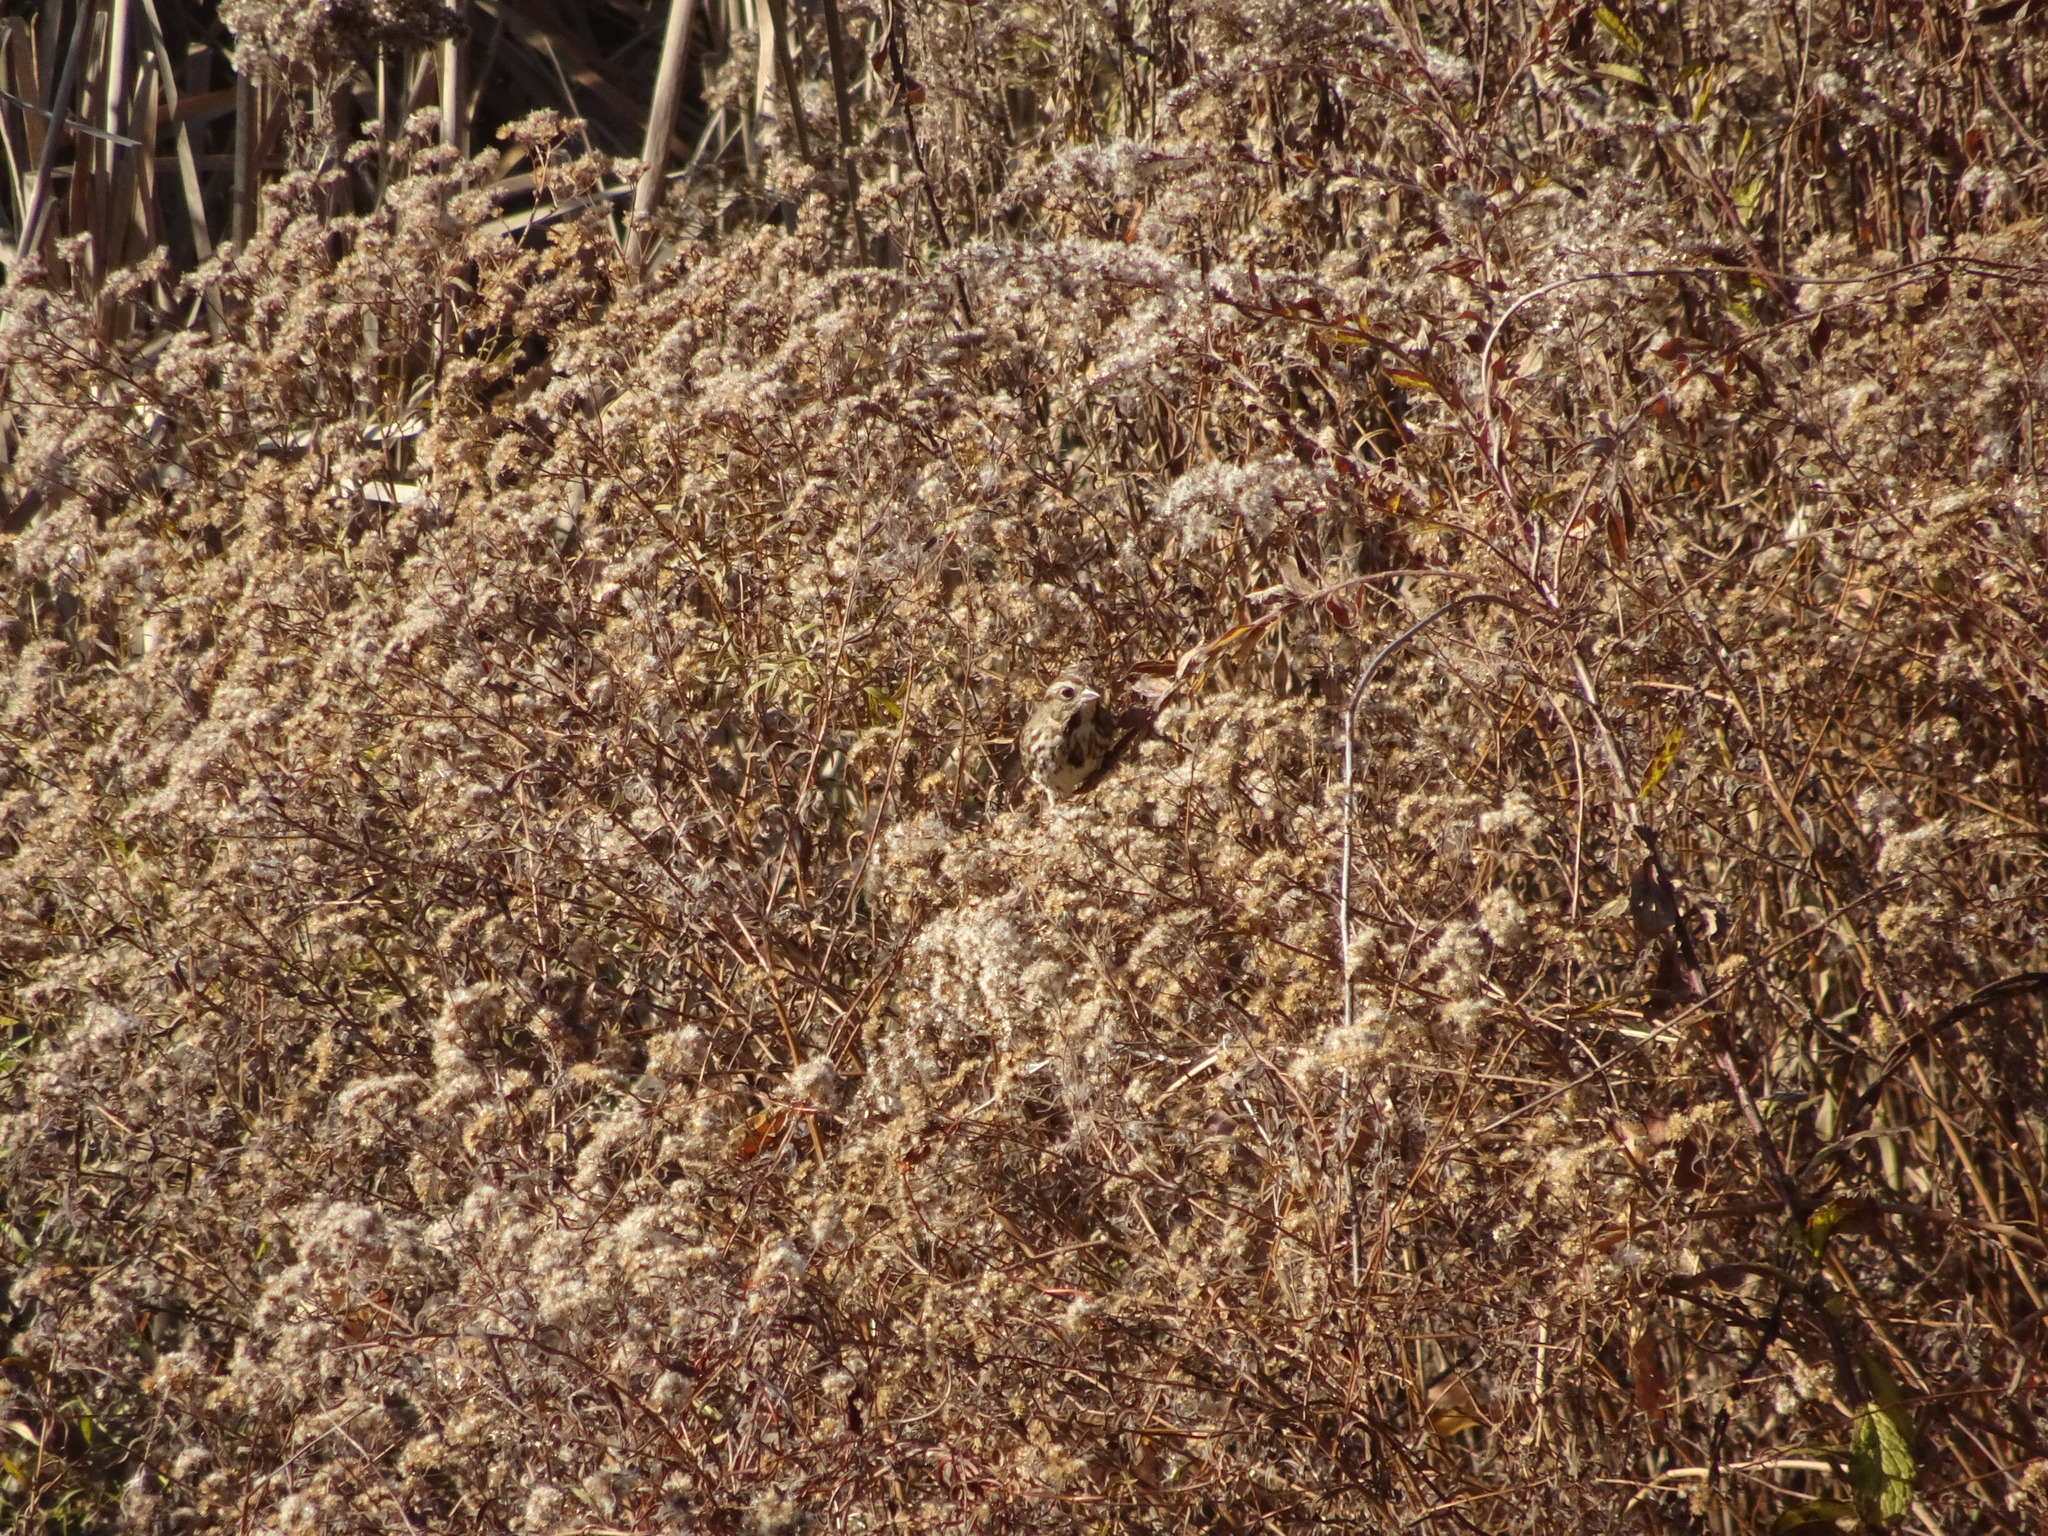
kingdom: Animalia
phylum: Chordata
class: Aves
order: Passeriformes
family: Passerellidae
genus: Melospiza
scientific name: Melospiza melodia
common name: Song sparrow
